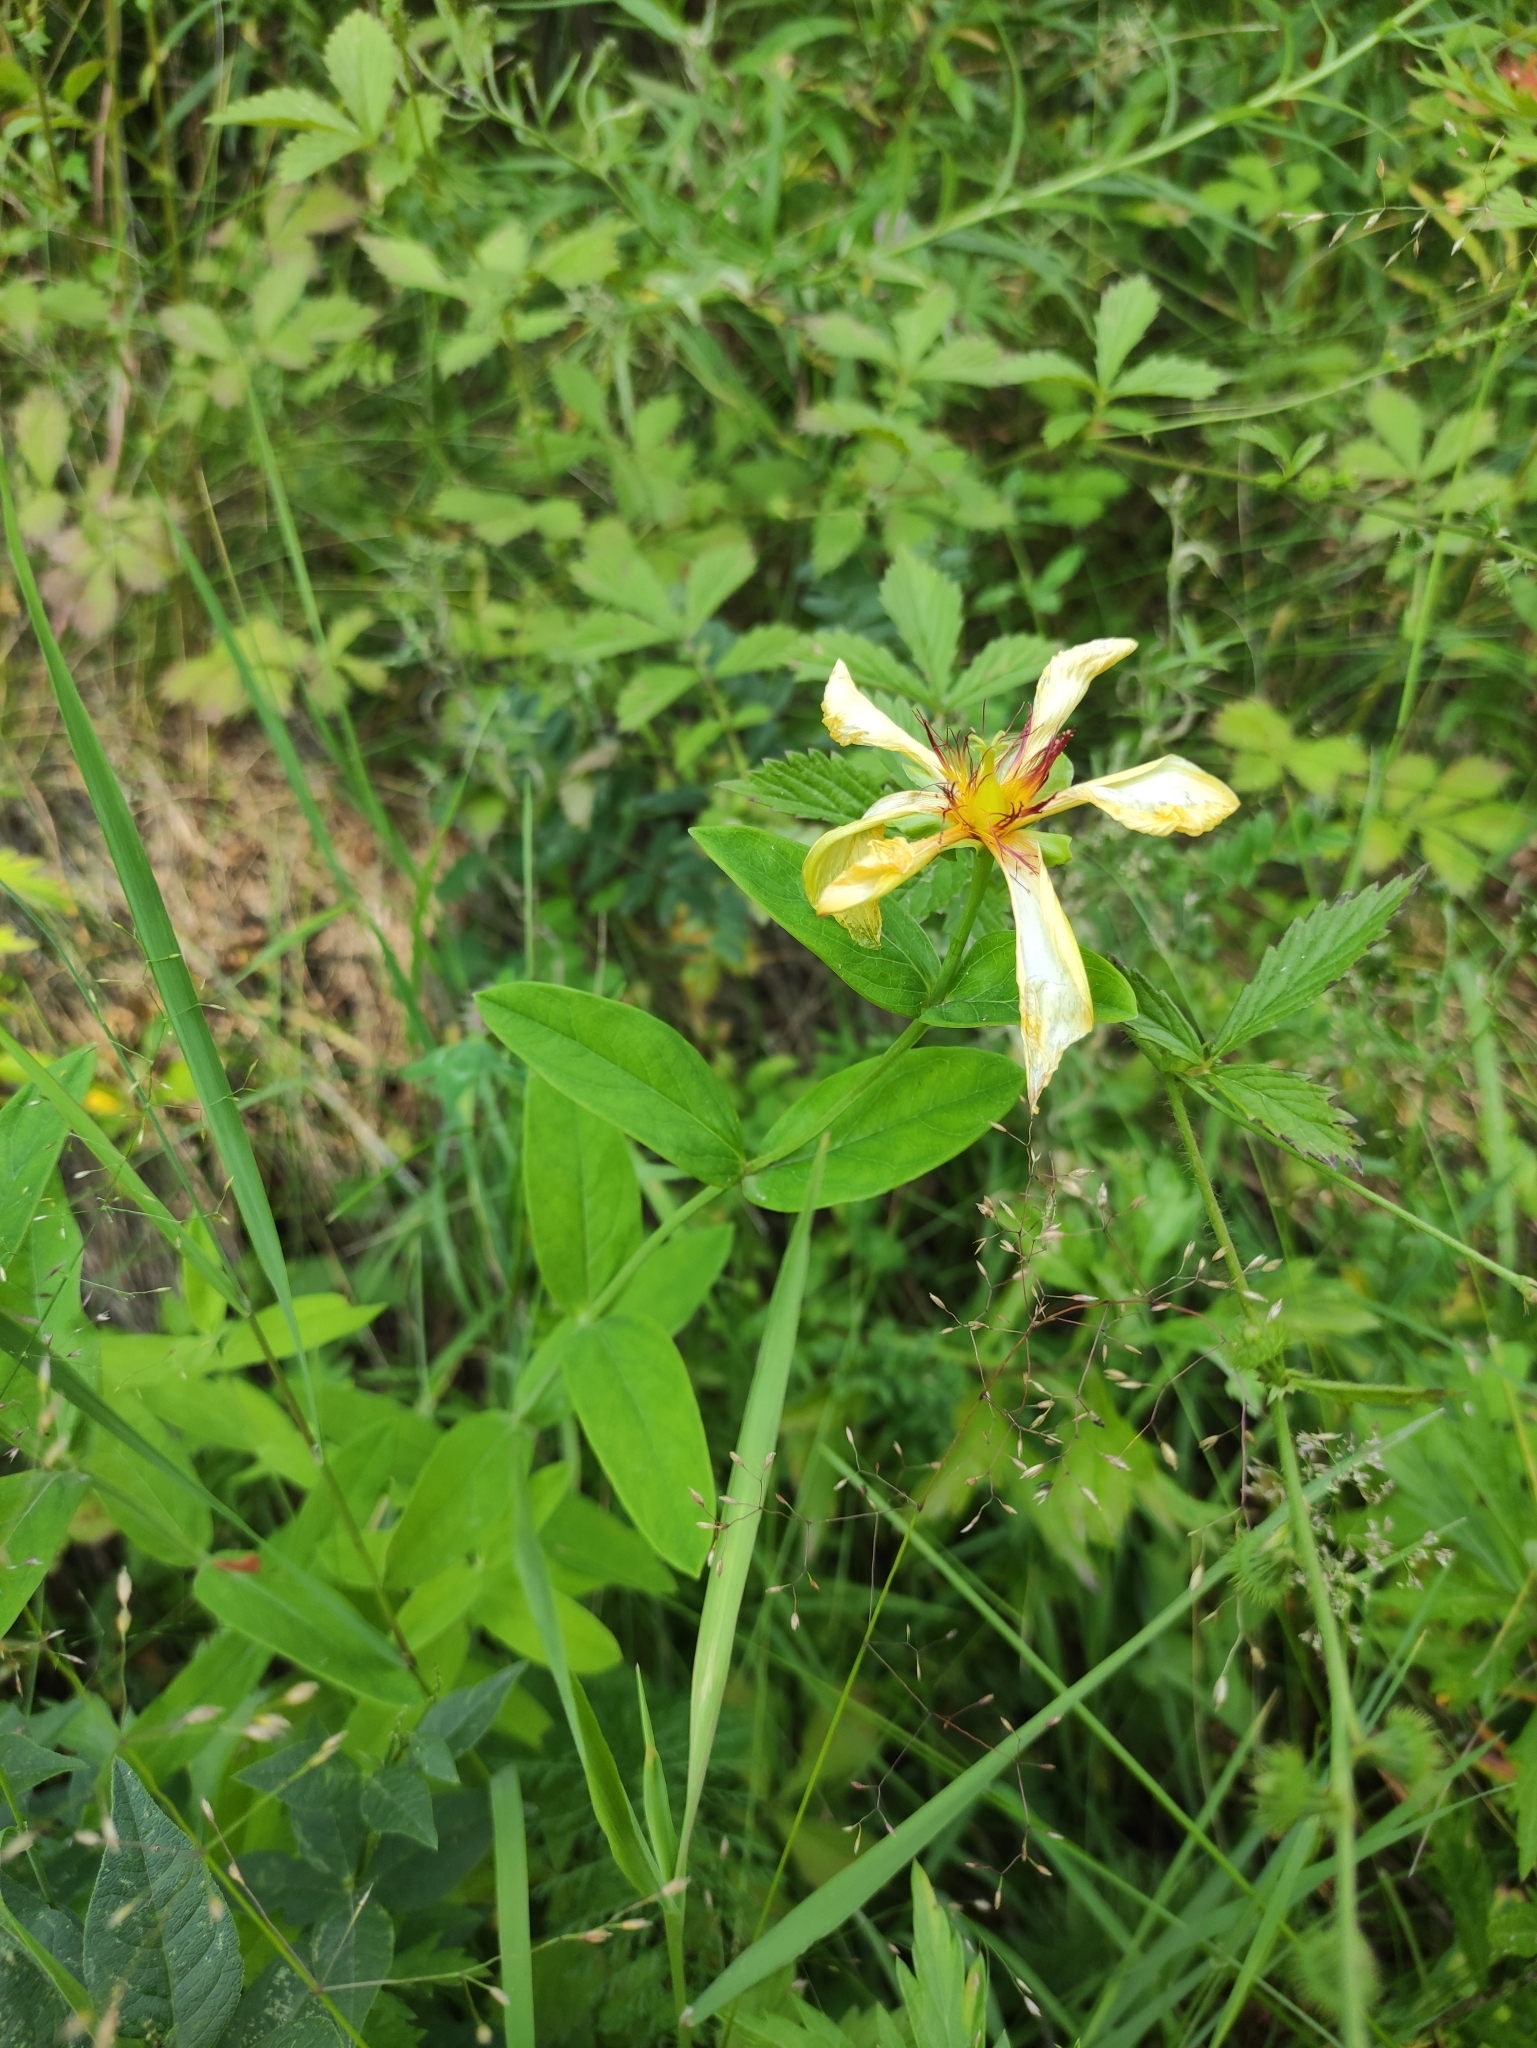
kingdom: Plantae
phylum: Tracheophyta
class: Magnoliopsida
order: Malpighiales
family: Hypericaceae
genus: Hypericum
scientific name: Hypericum ascyron
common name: Giant st. john's-wort
